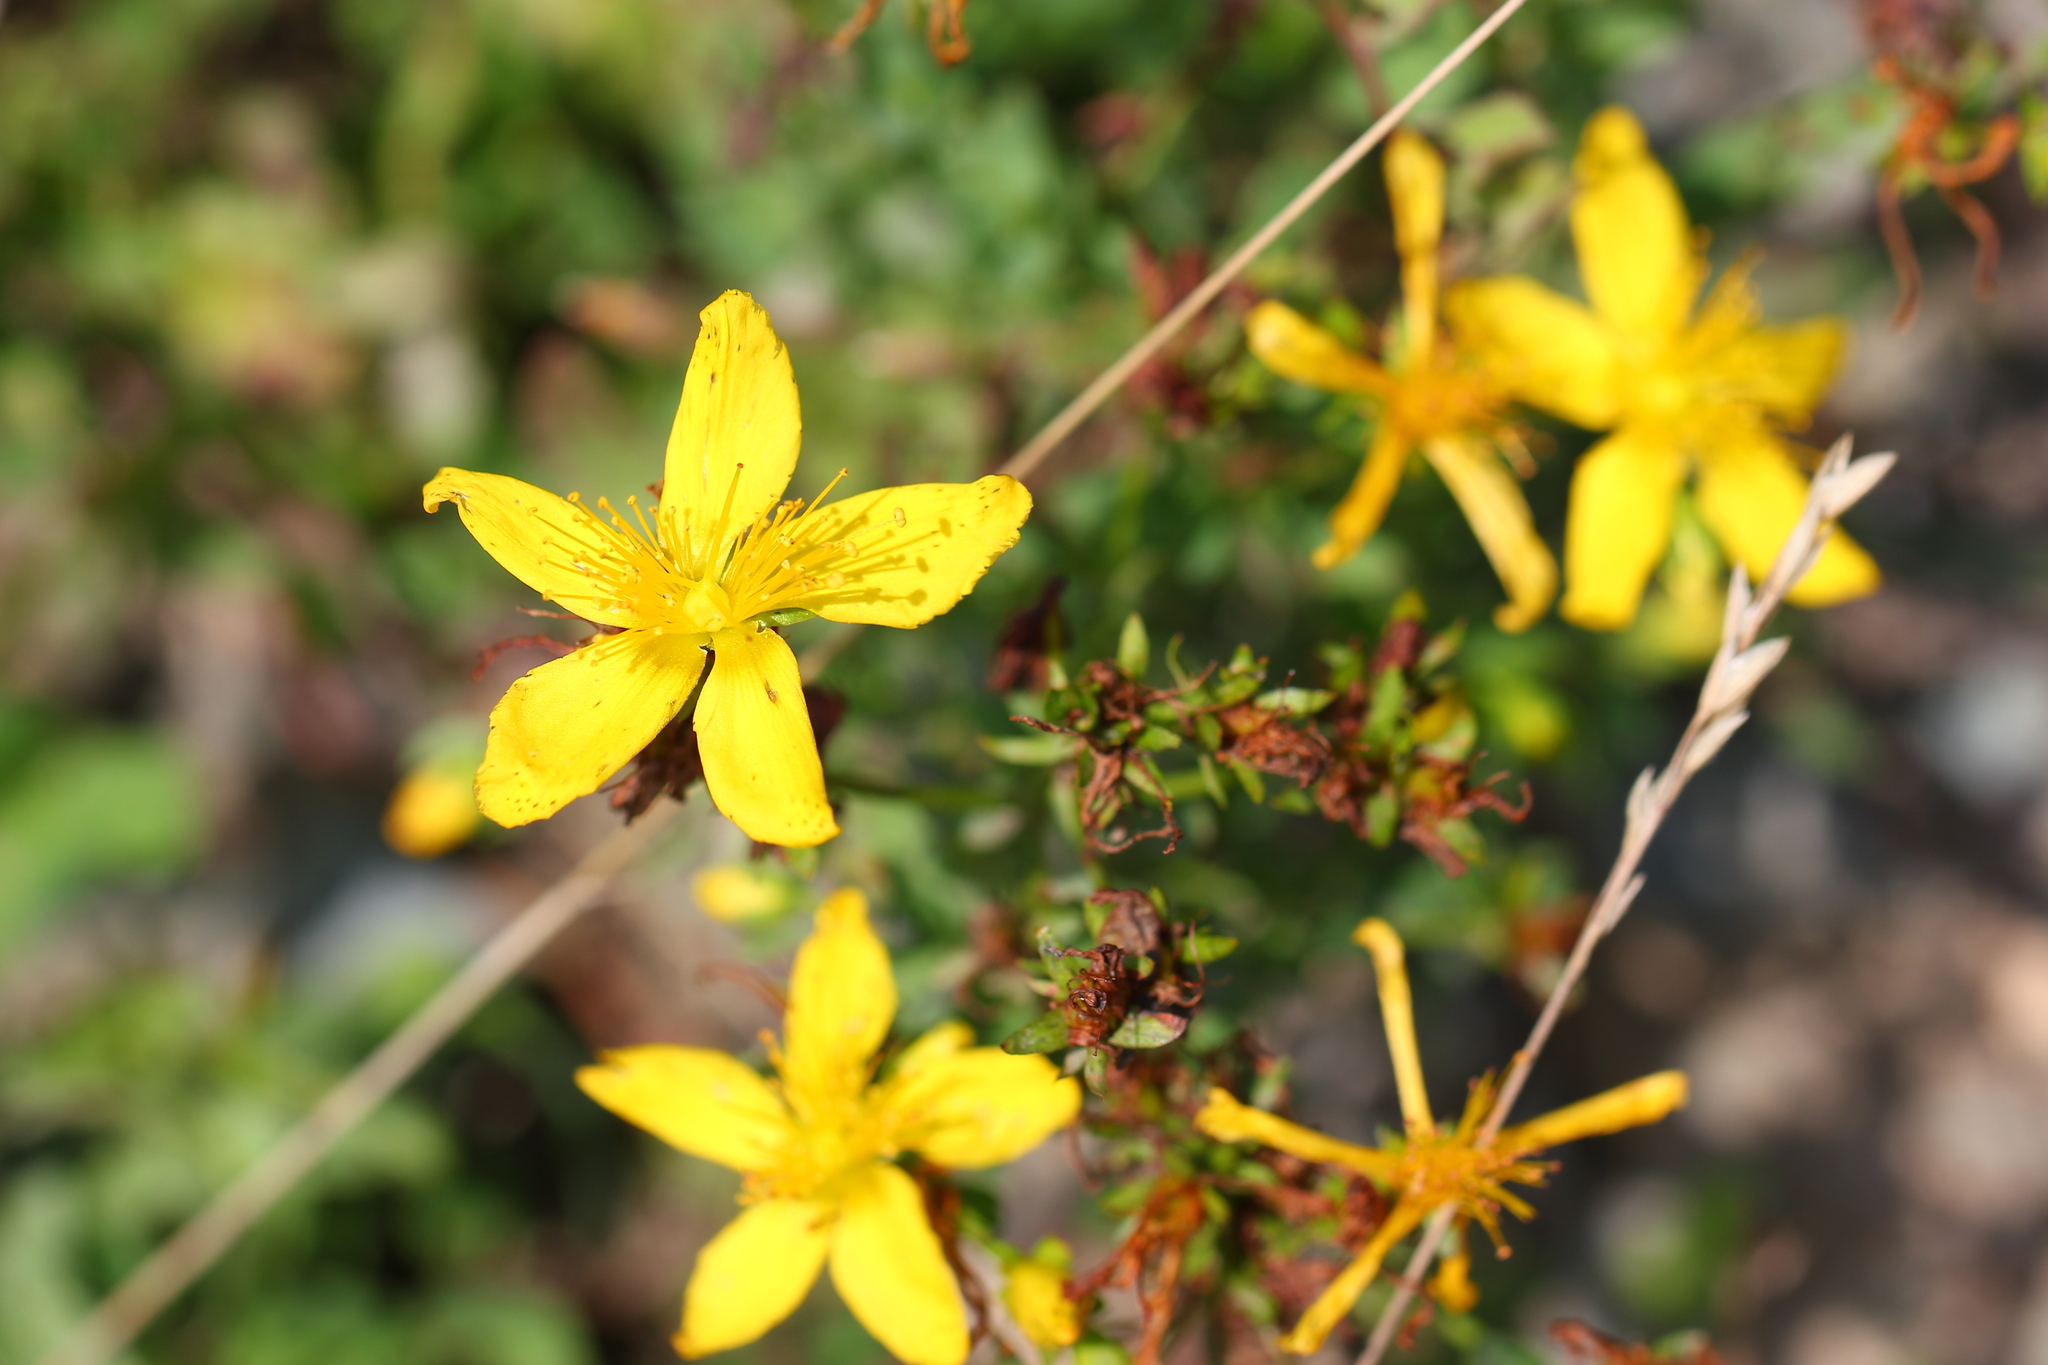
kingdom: Plantae
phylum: Tracheophyta
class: Magnoliopsida
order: Malpighiales
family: Hypericaceae
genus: Hypericum
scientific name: Hypericum perforatum
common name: Common st. johnswort
